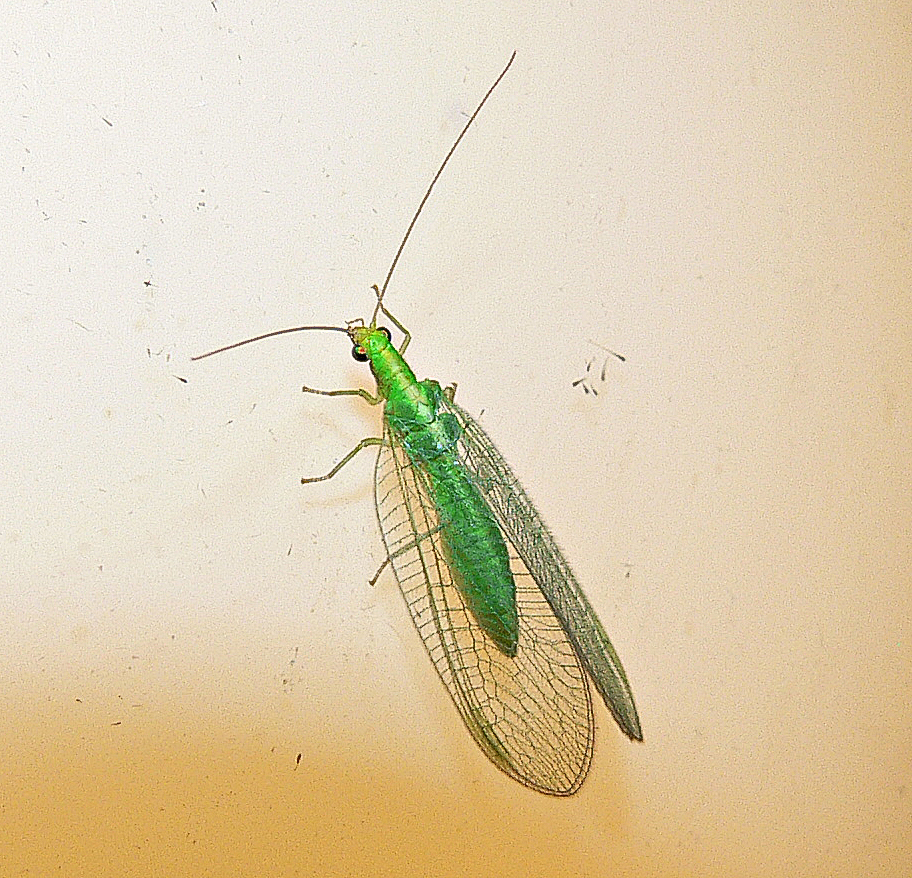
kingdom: Animalia
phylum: Arthropoda
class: Insecta
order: Neuroptera
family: Chrysopidae
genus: Chrysoperla
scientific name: Chrysoperla
